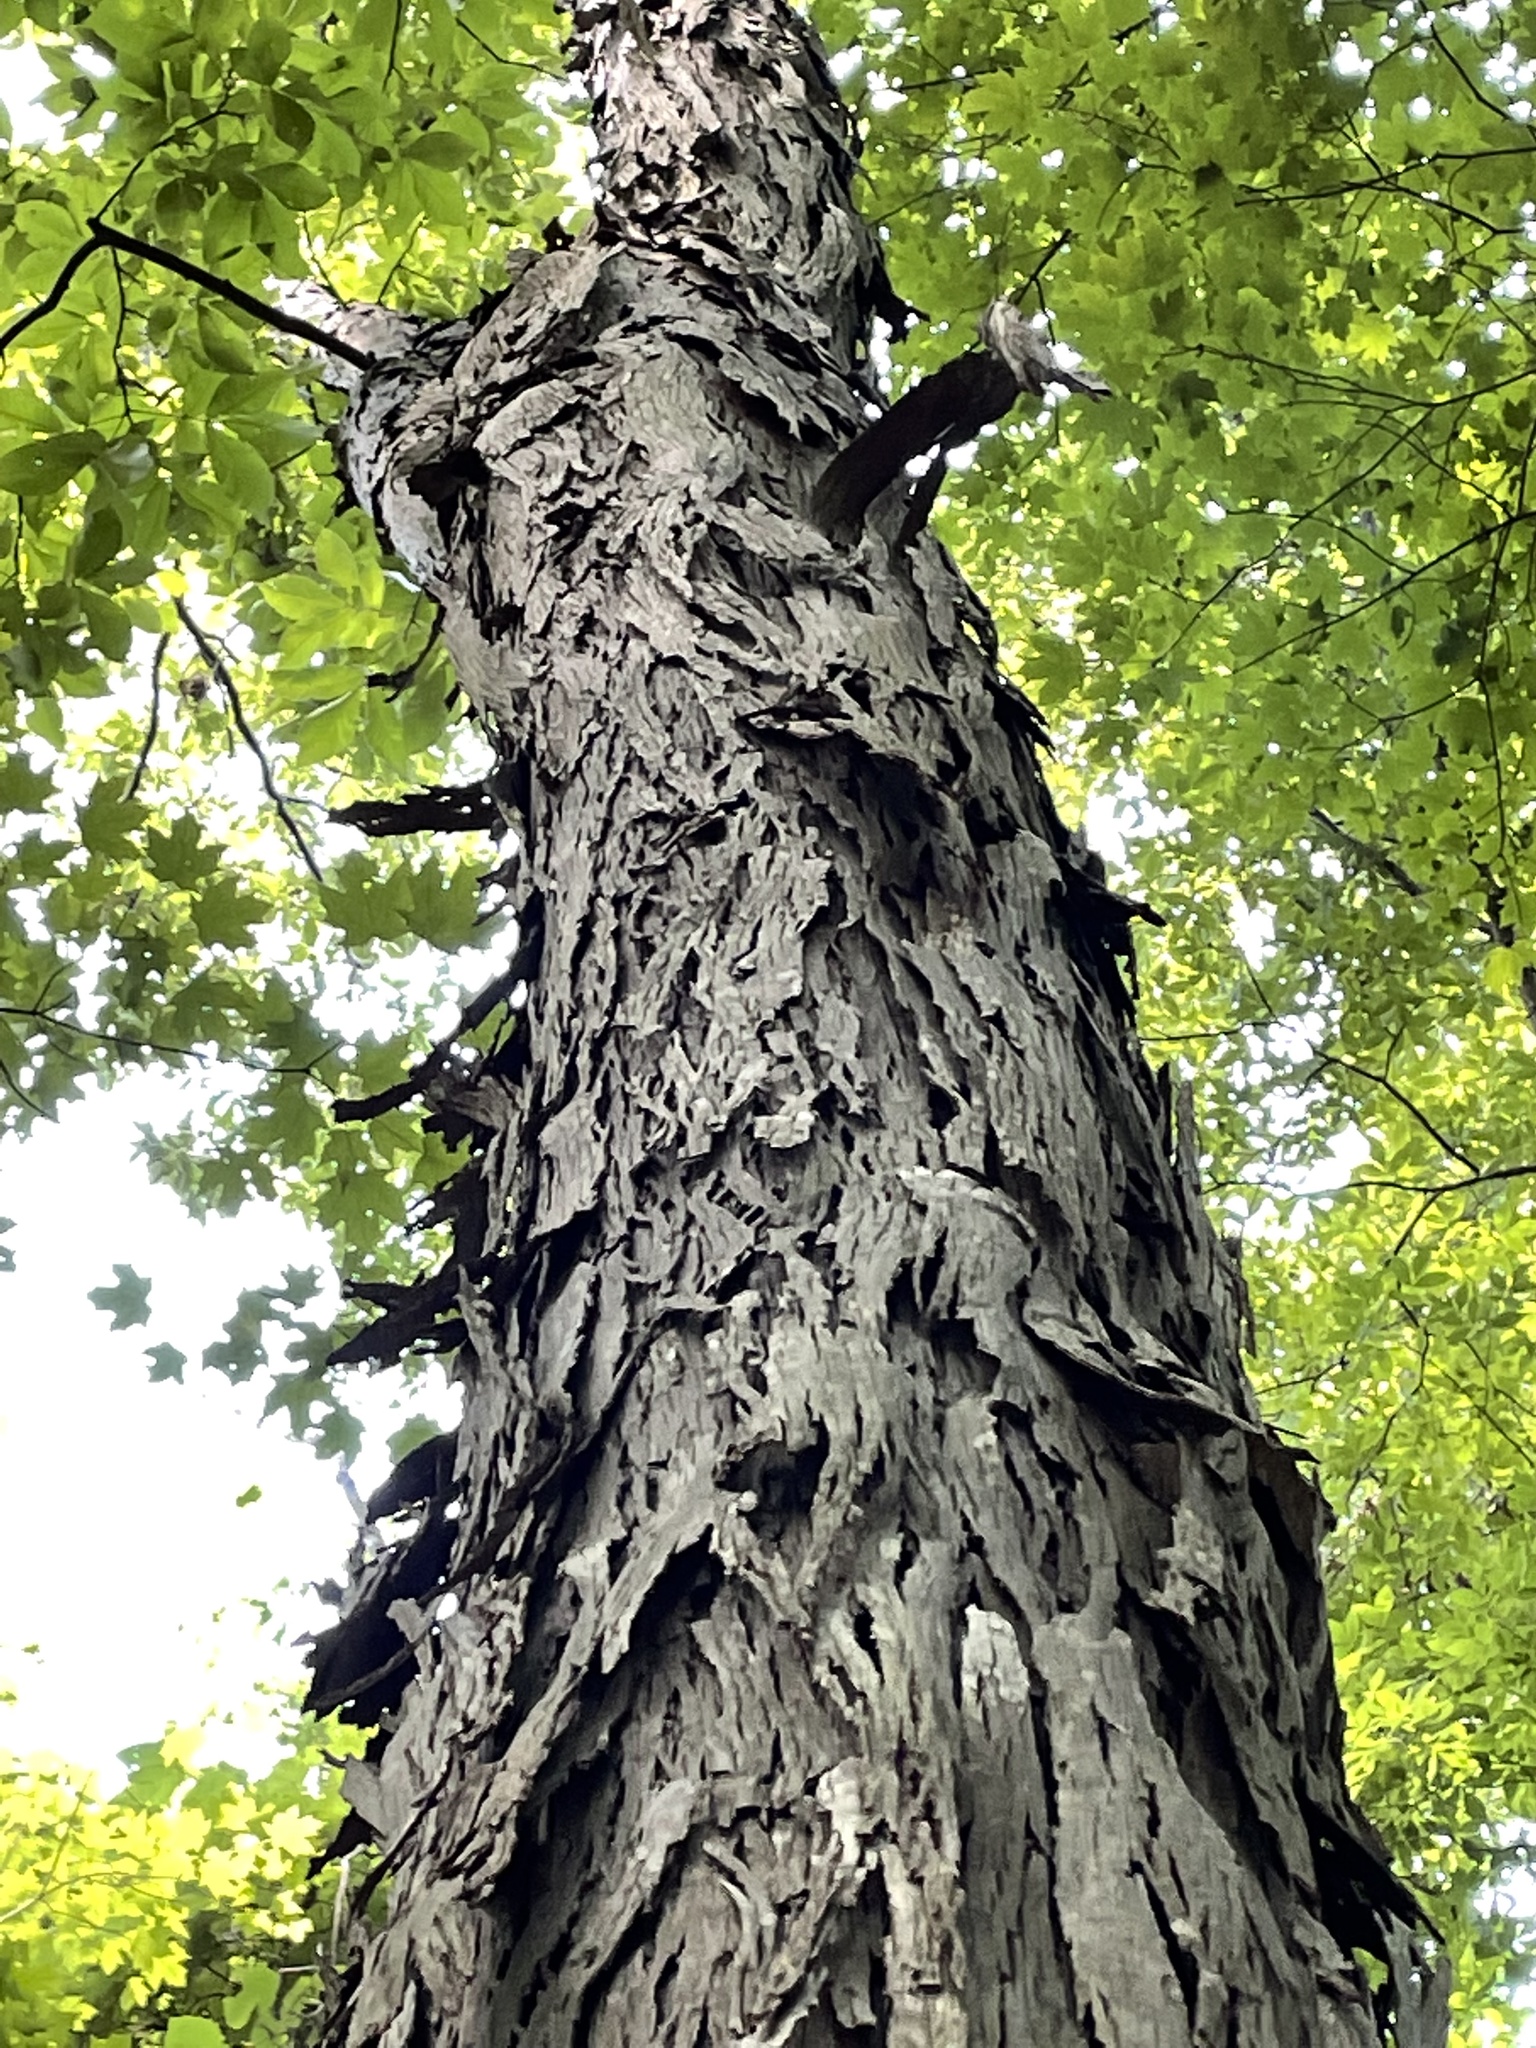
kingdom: Plantae
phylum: Tracheophyta
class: Magnoliopsida
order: Fagales
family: Juglandaceae
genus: Carya
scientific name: Carya ovata
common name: Shagbark hickory
